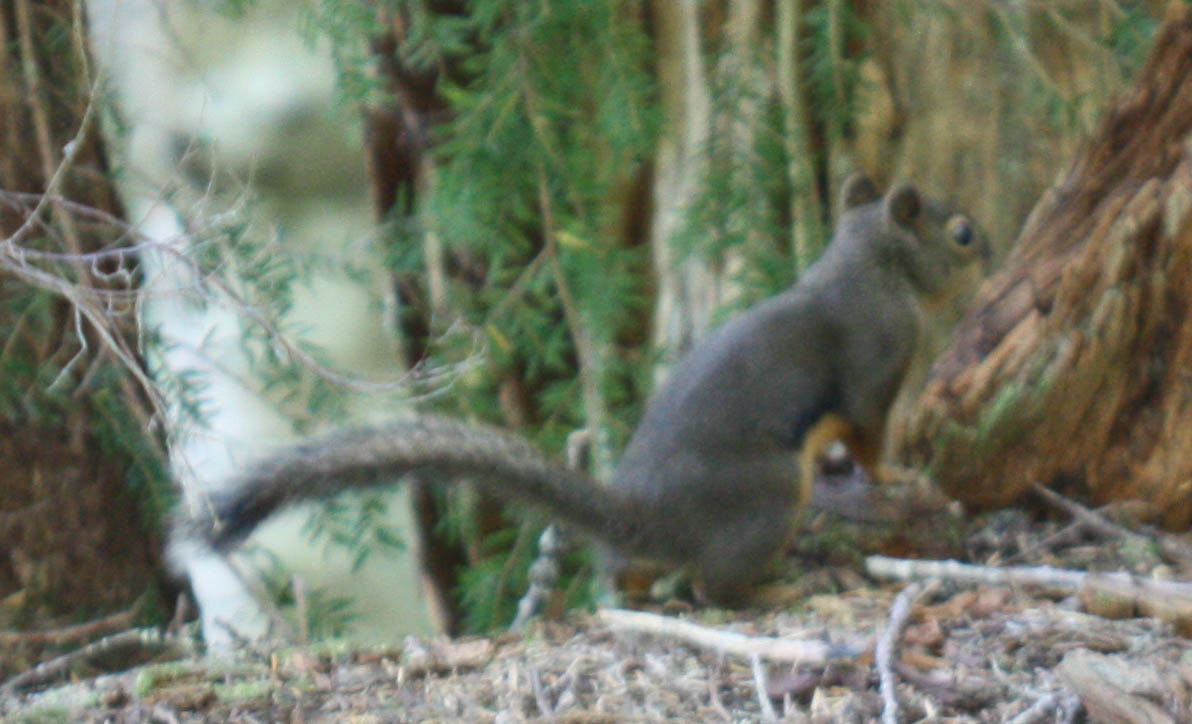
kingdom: Animalia
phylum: Chordata
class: Mammalia
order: Rodentia
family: Sciuridae
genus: Tamiasciurus
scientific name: Tamiasciurus douglasii
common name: Douglas's squirrel
